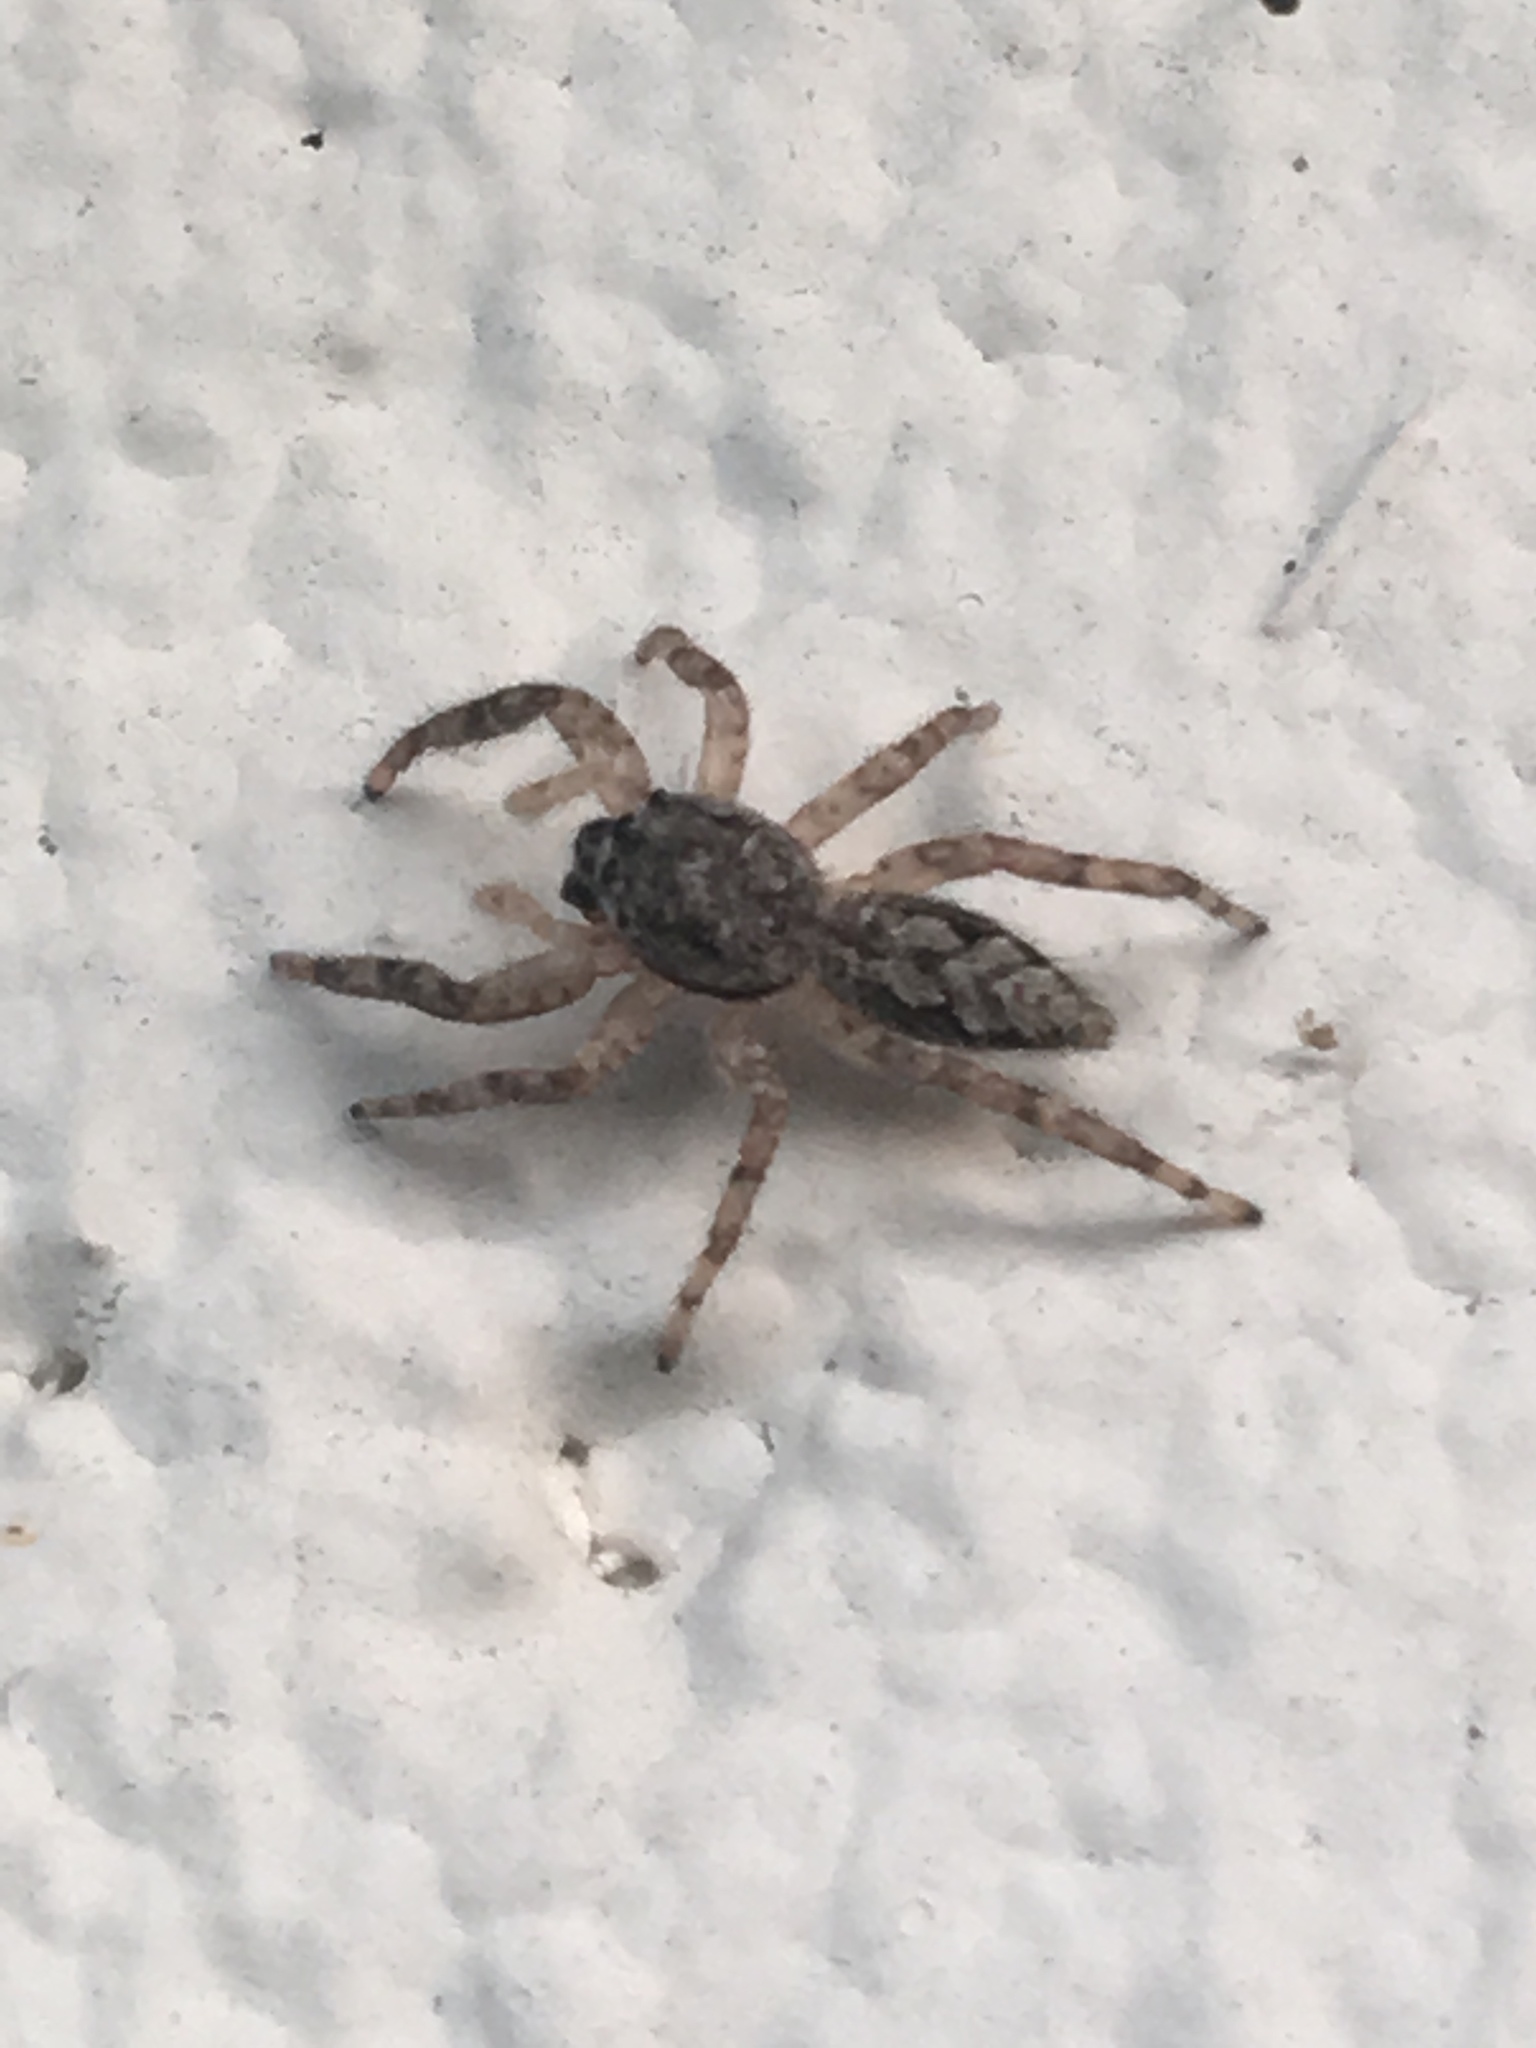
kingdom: Animalia
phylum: Arthropoda
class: Arachnida
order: Araneae
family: Salticidae
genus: Platycryptus
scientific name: Platycryptus undatus
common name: Tan jumping spider
